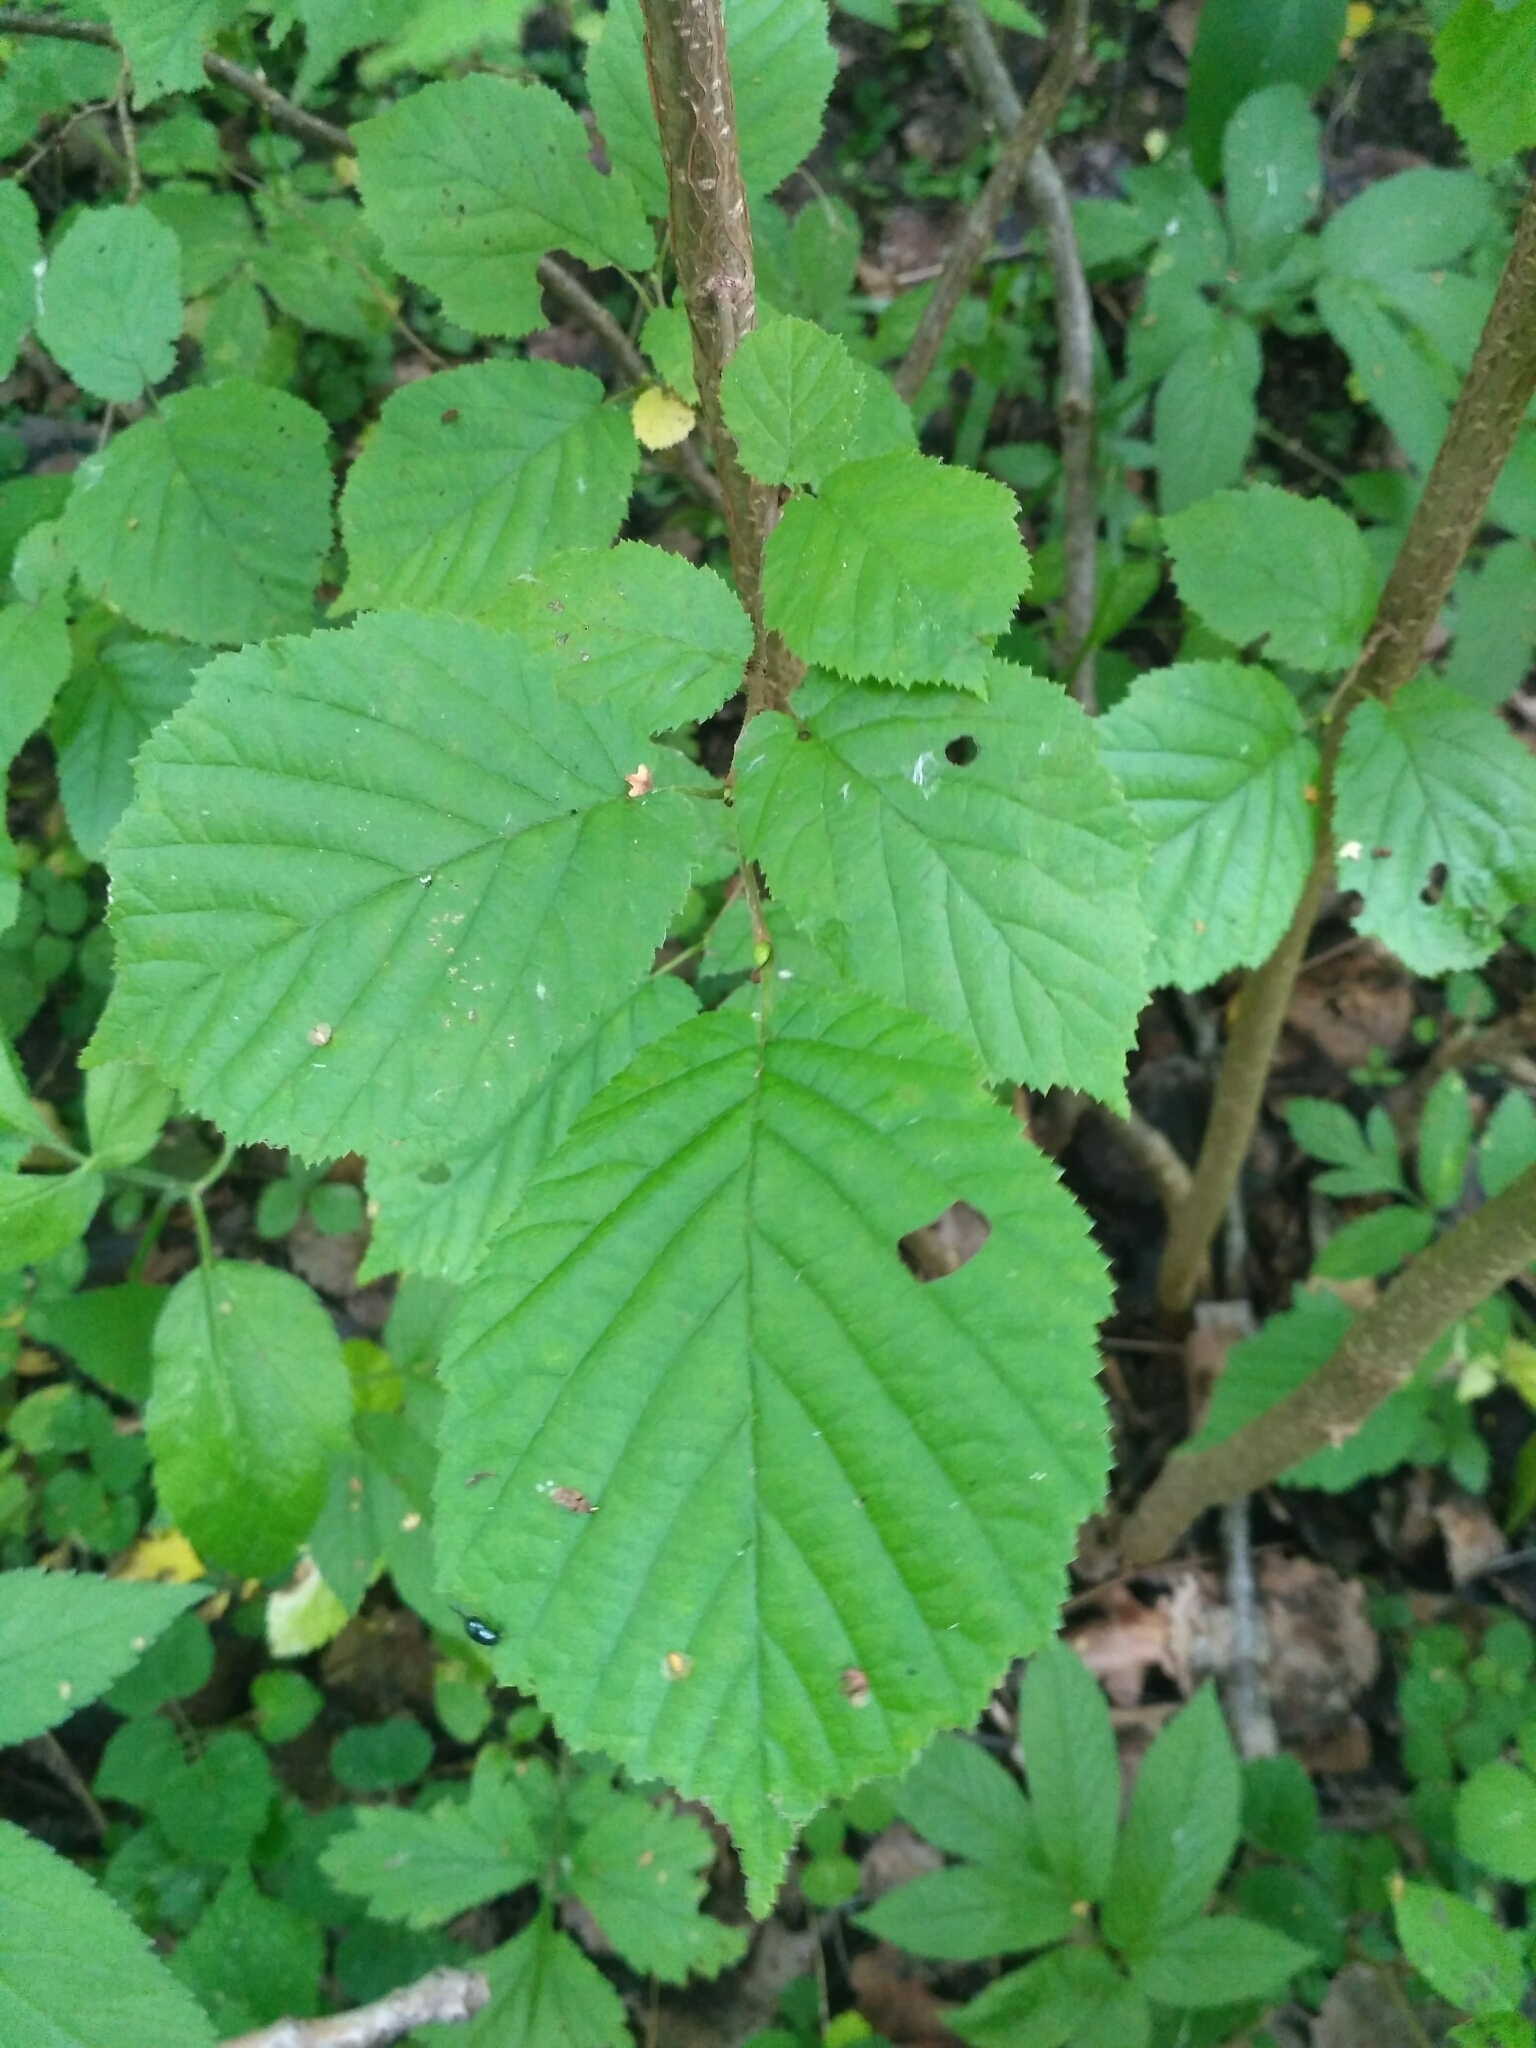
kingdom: Plantae
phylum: Tracheophyta
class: Magnoliopsida
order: Fagales
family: Betulaceae
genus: Corylus
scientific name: Corylus avellana
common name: European hazel
